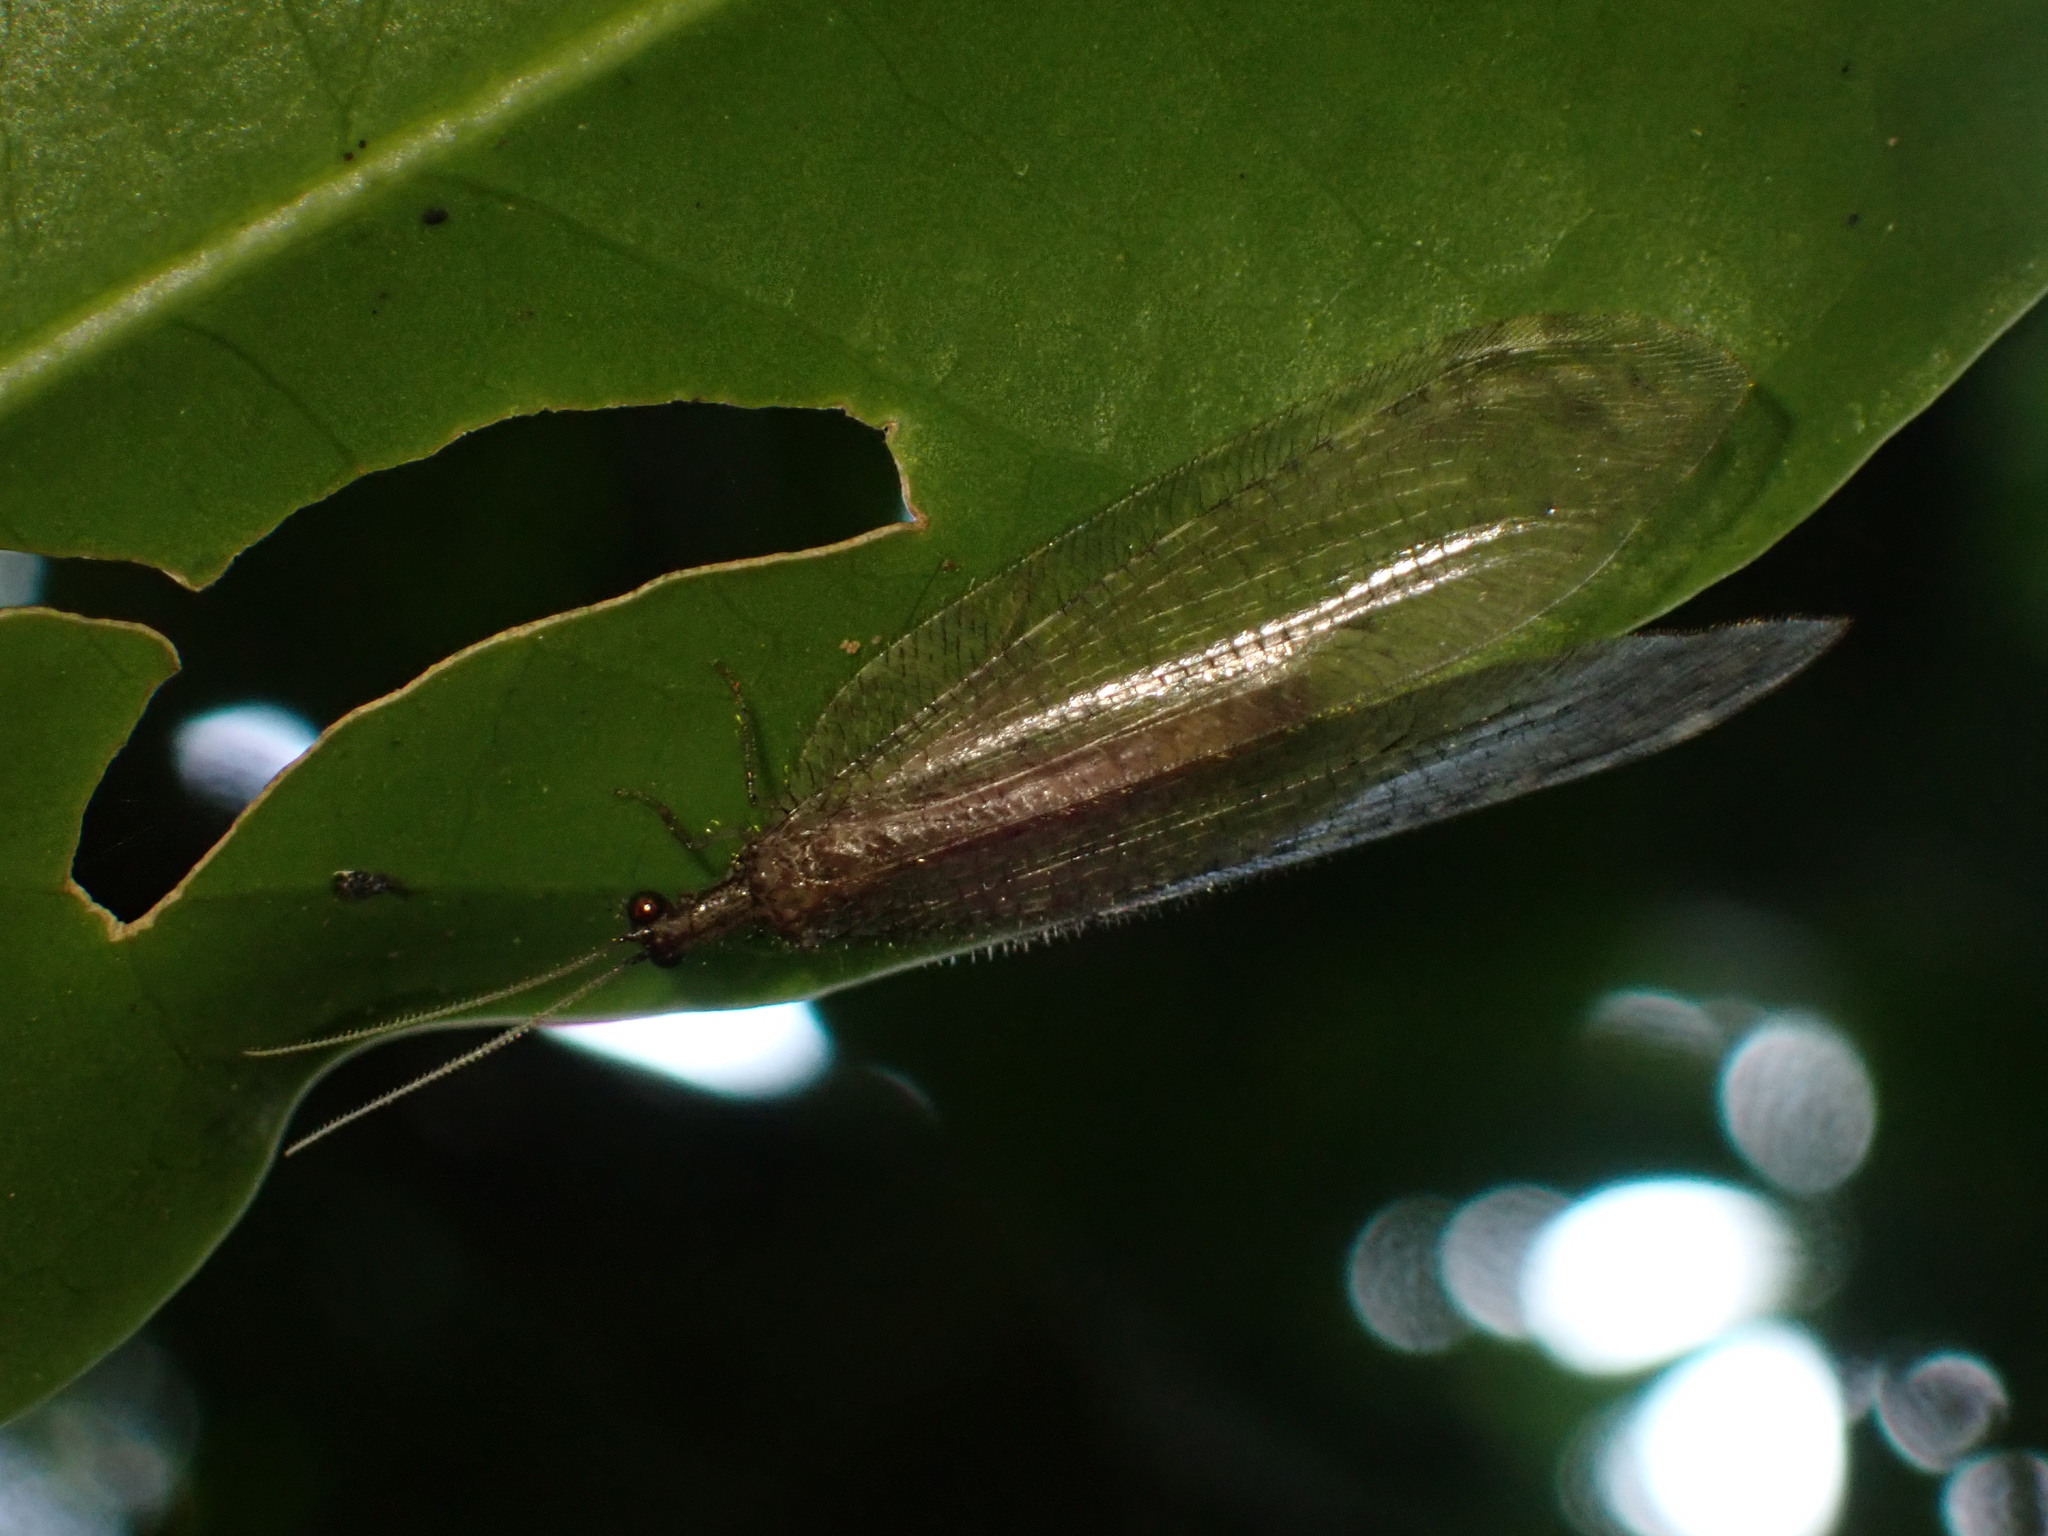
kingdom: Animalia
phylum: Arthropoda
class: Insecta
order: Neuroptera
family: Osmylidae
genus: Isostenosmylus
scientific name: Isostenosmylus pulverulentus
